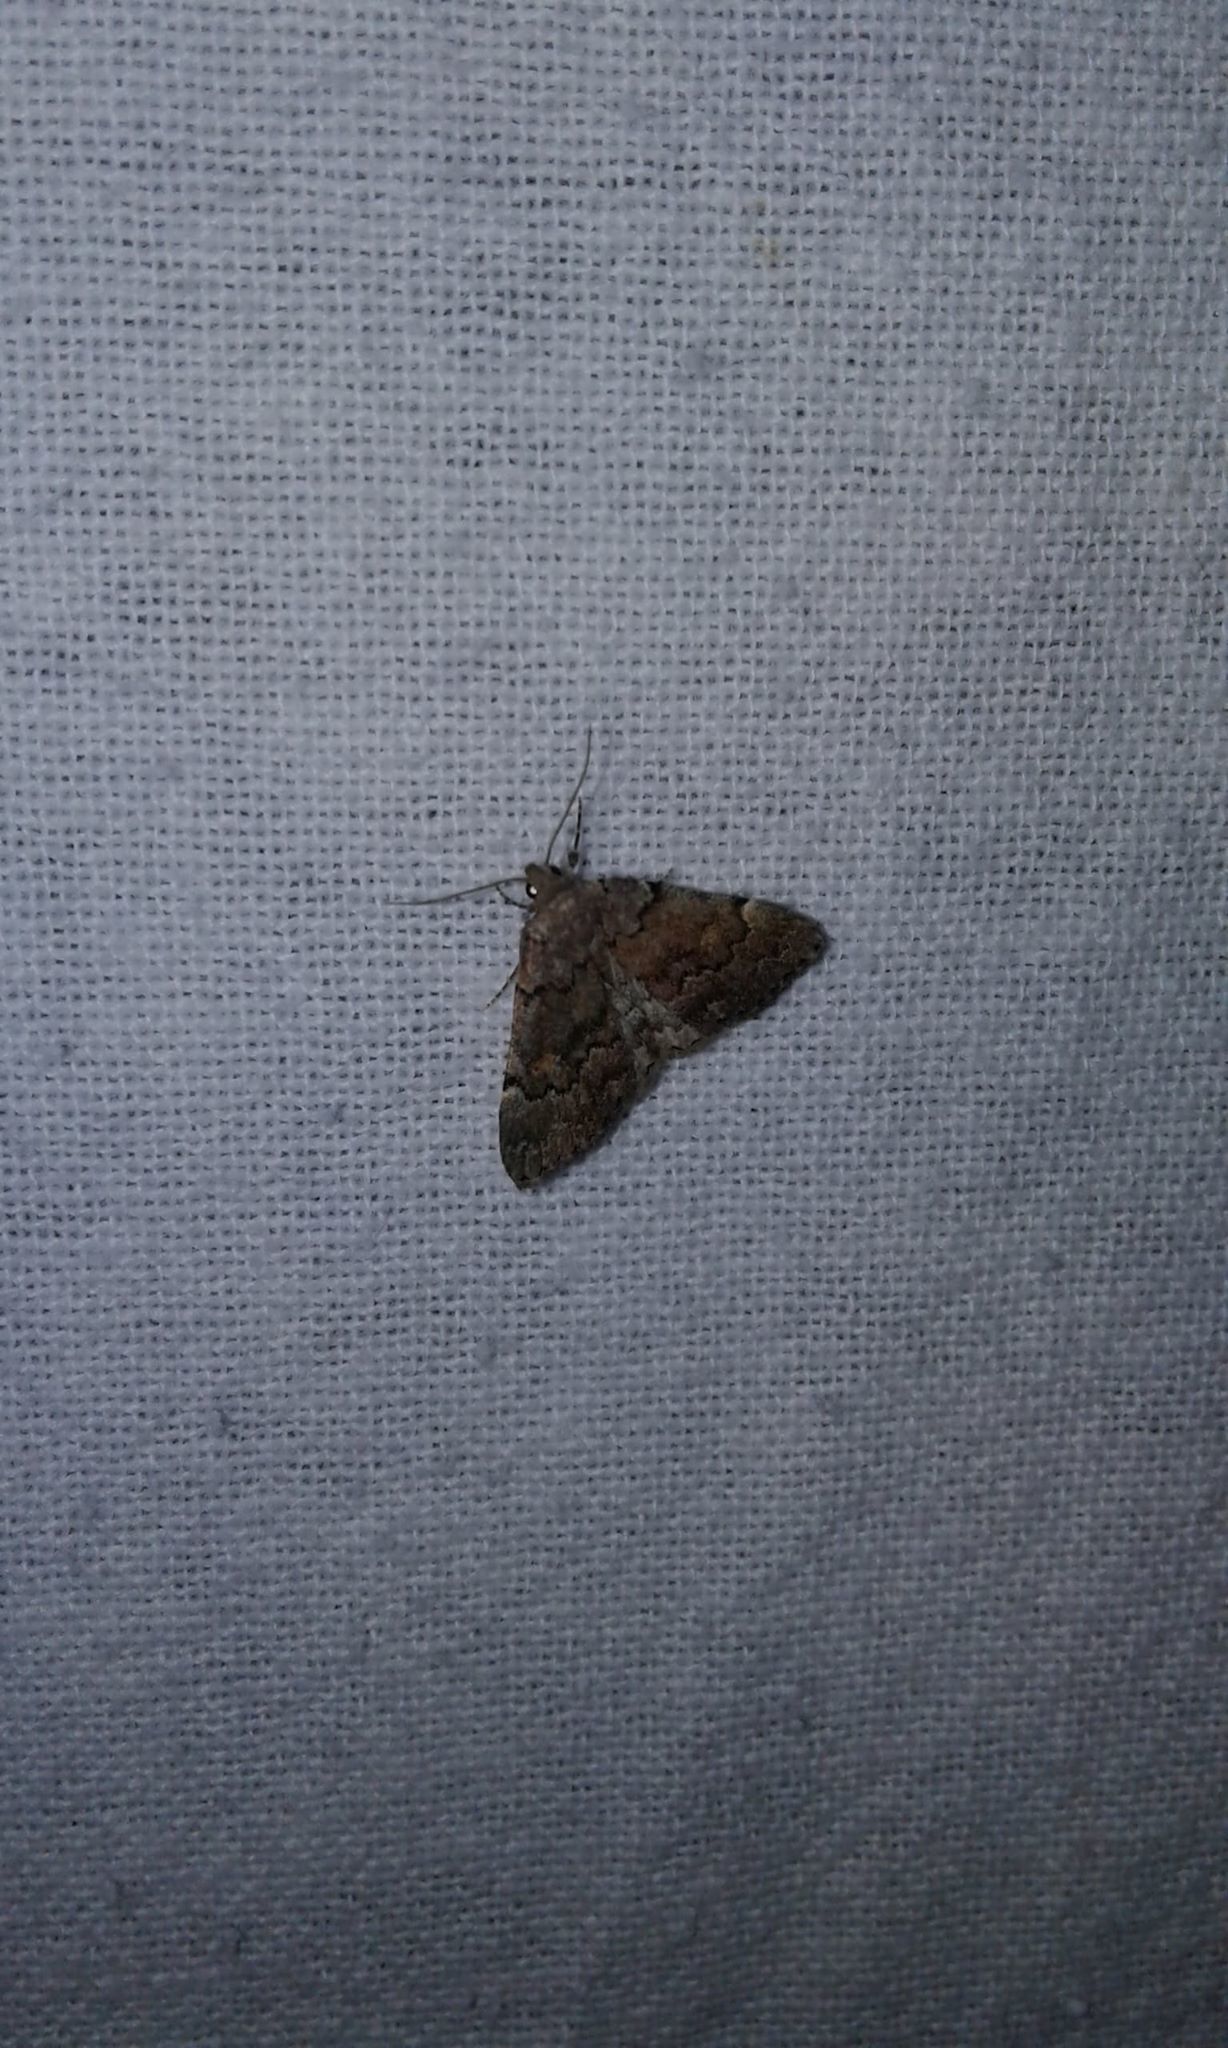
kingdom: Animalia
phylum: Arthropoda
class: Insecta
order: Lepidoptera
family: Erebidae
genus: Idia
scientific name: Idia aemula
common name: Common idia moth
